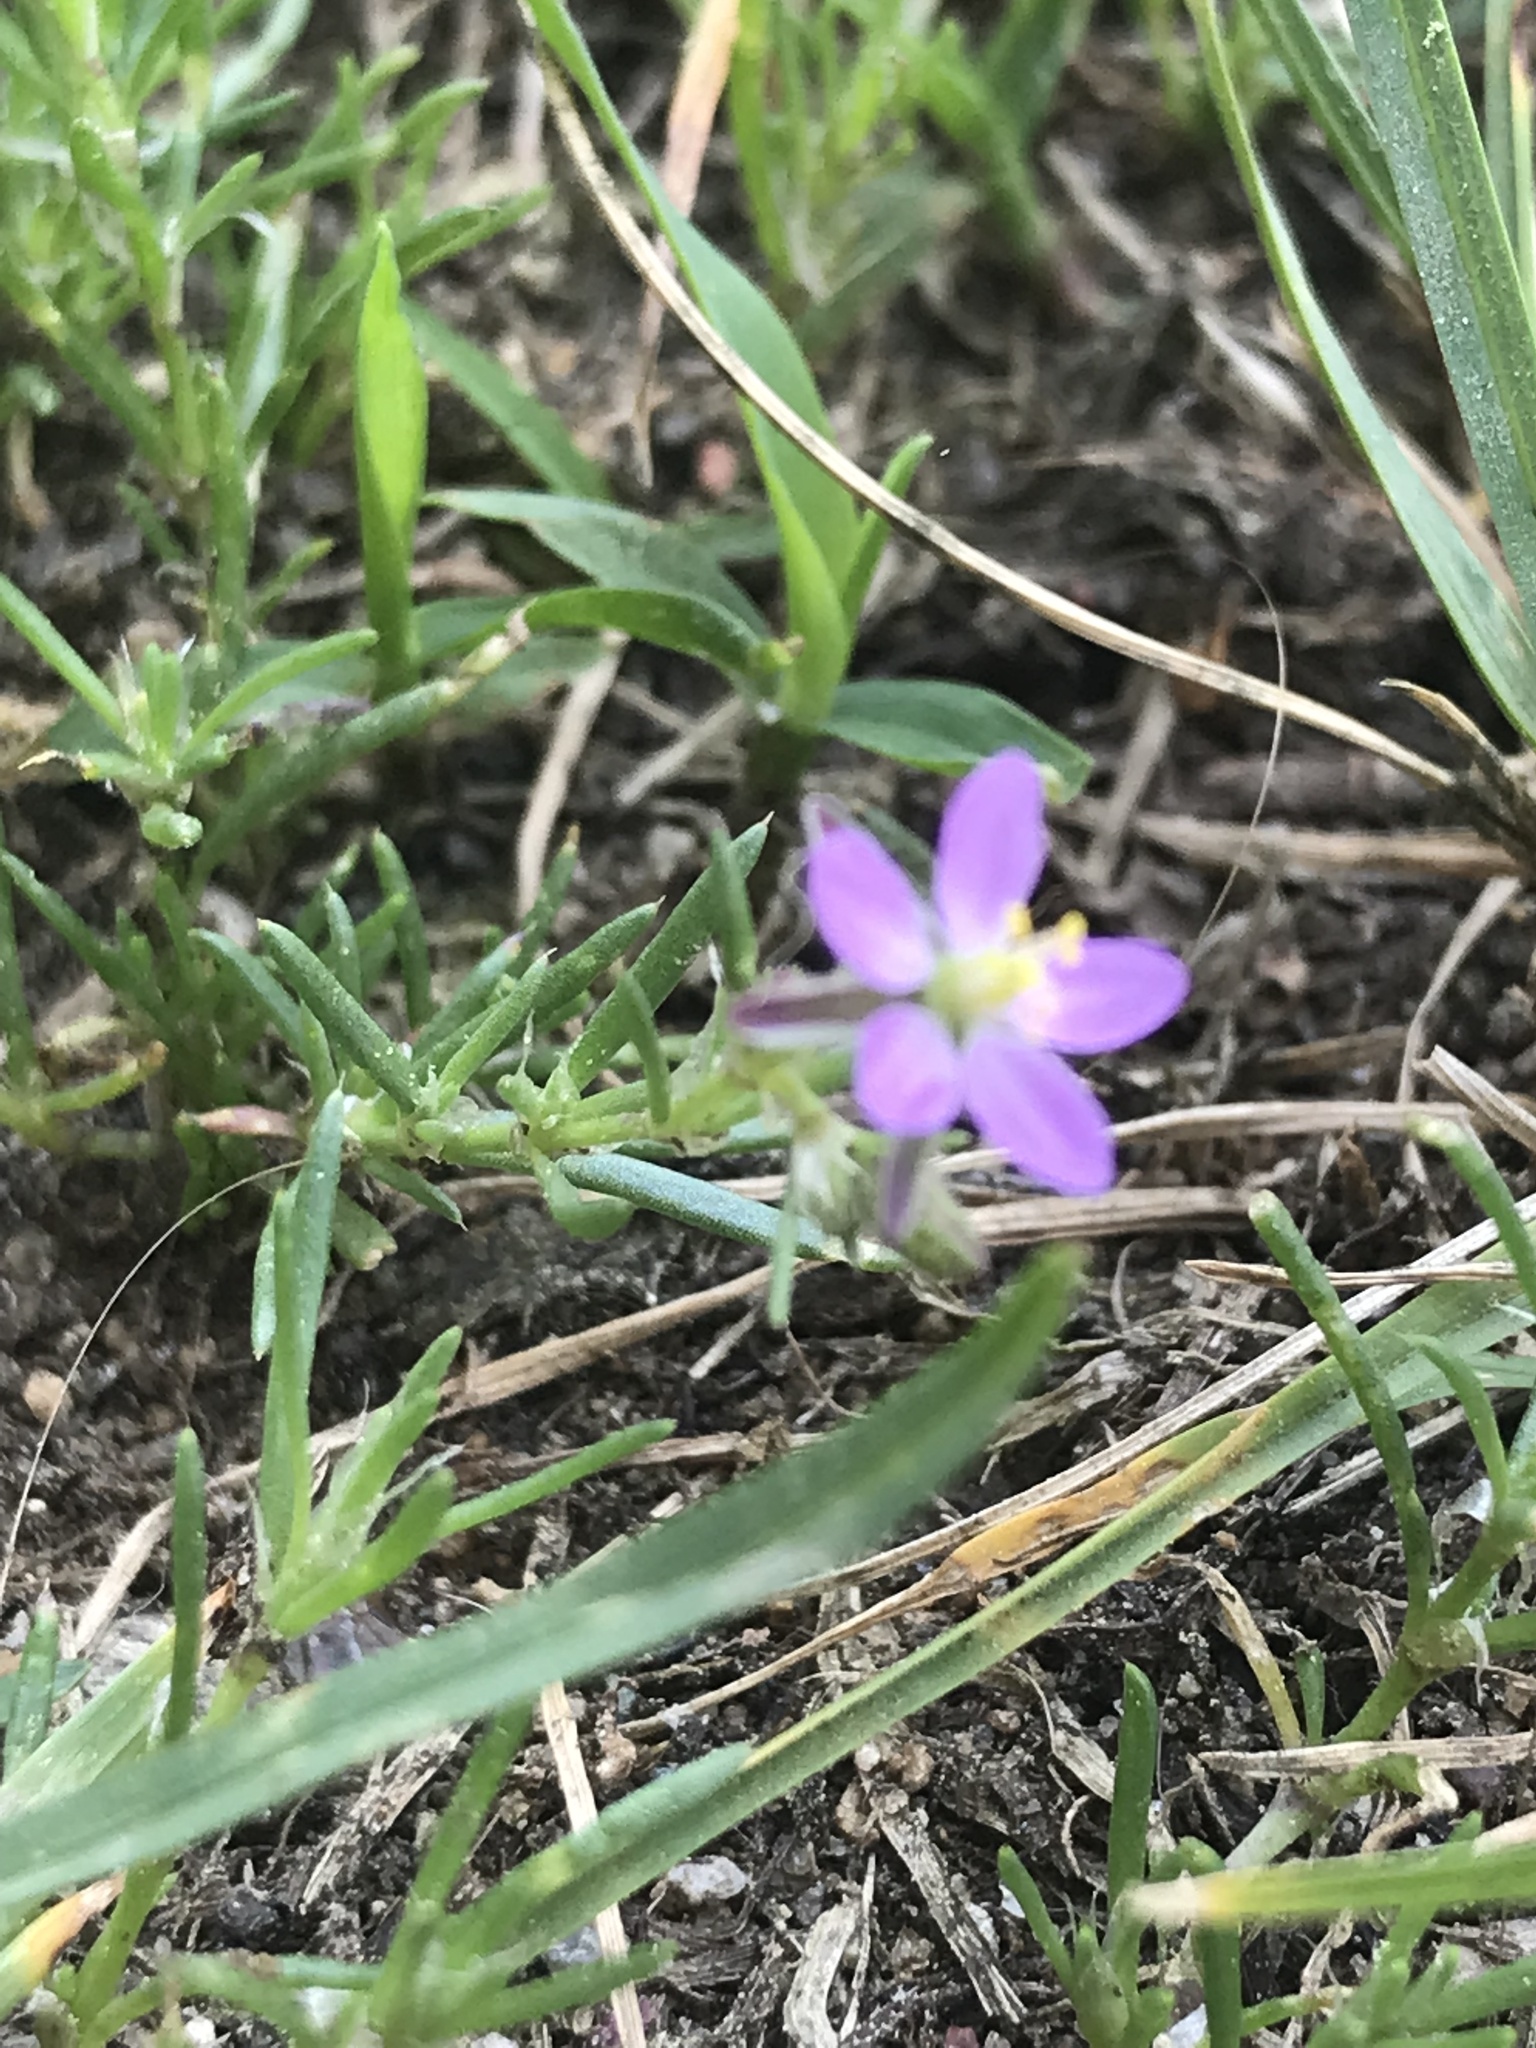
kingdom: Plantae
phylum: Tracheophyta
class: Magnoliopsida
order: Caryophyllales
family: Caryophyllaceae
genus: Spergularia
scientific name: Spergularia rubra
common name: Red sand-spurrey
